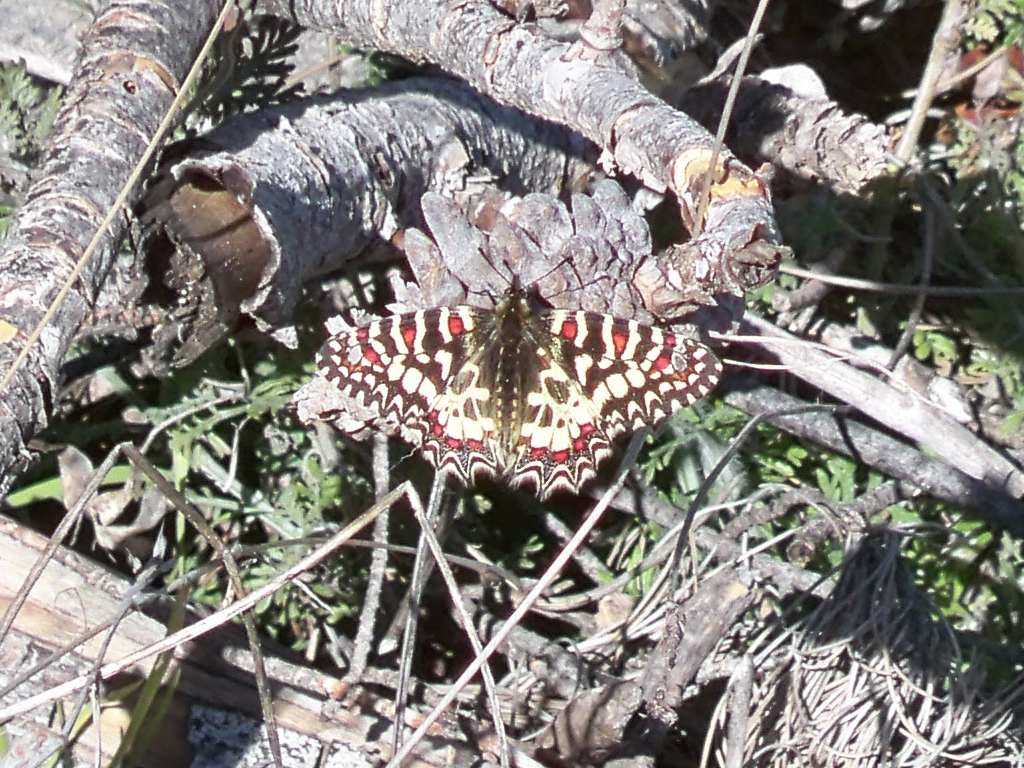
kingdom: Animalia
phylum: Arthropoda
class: Insecta
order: Lepidoptera
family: Papilionidae
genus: Zerynthia
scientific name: Zerynthia rumina
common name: Spanish festoon
